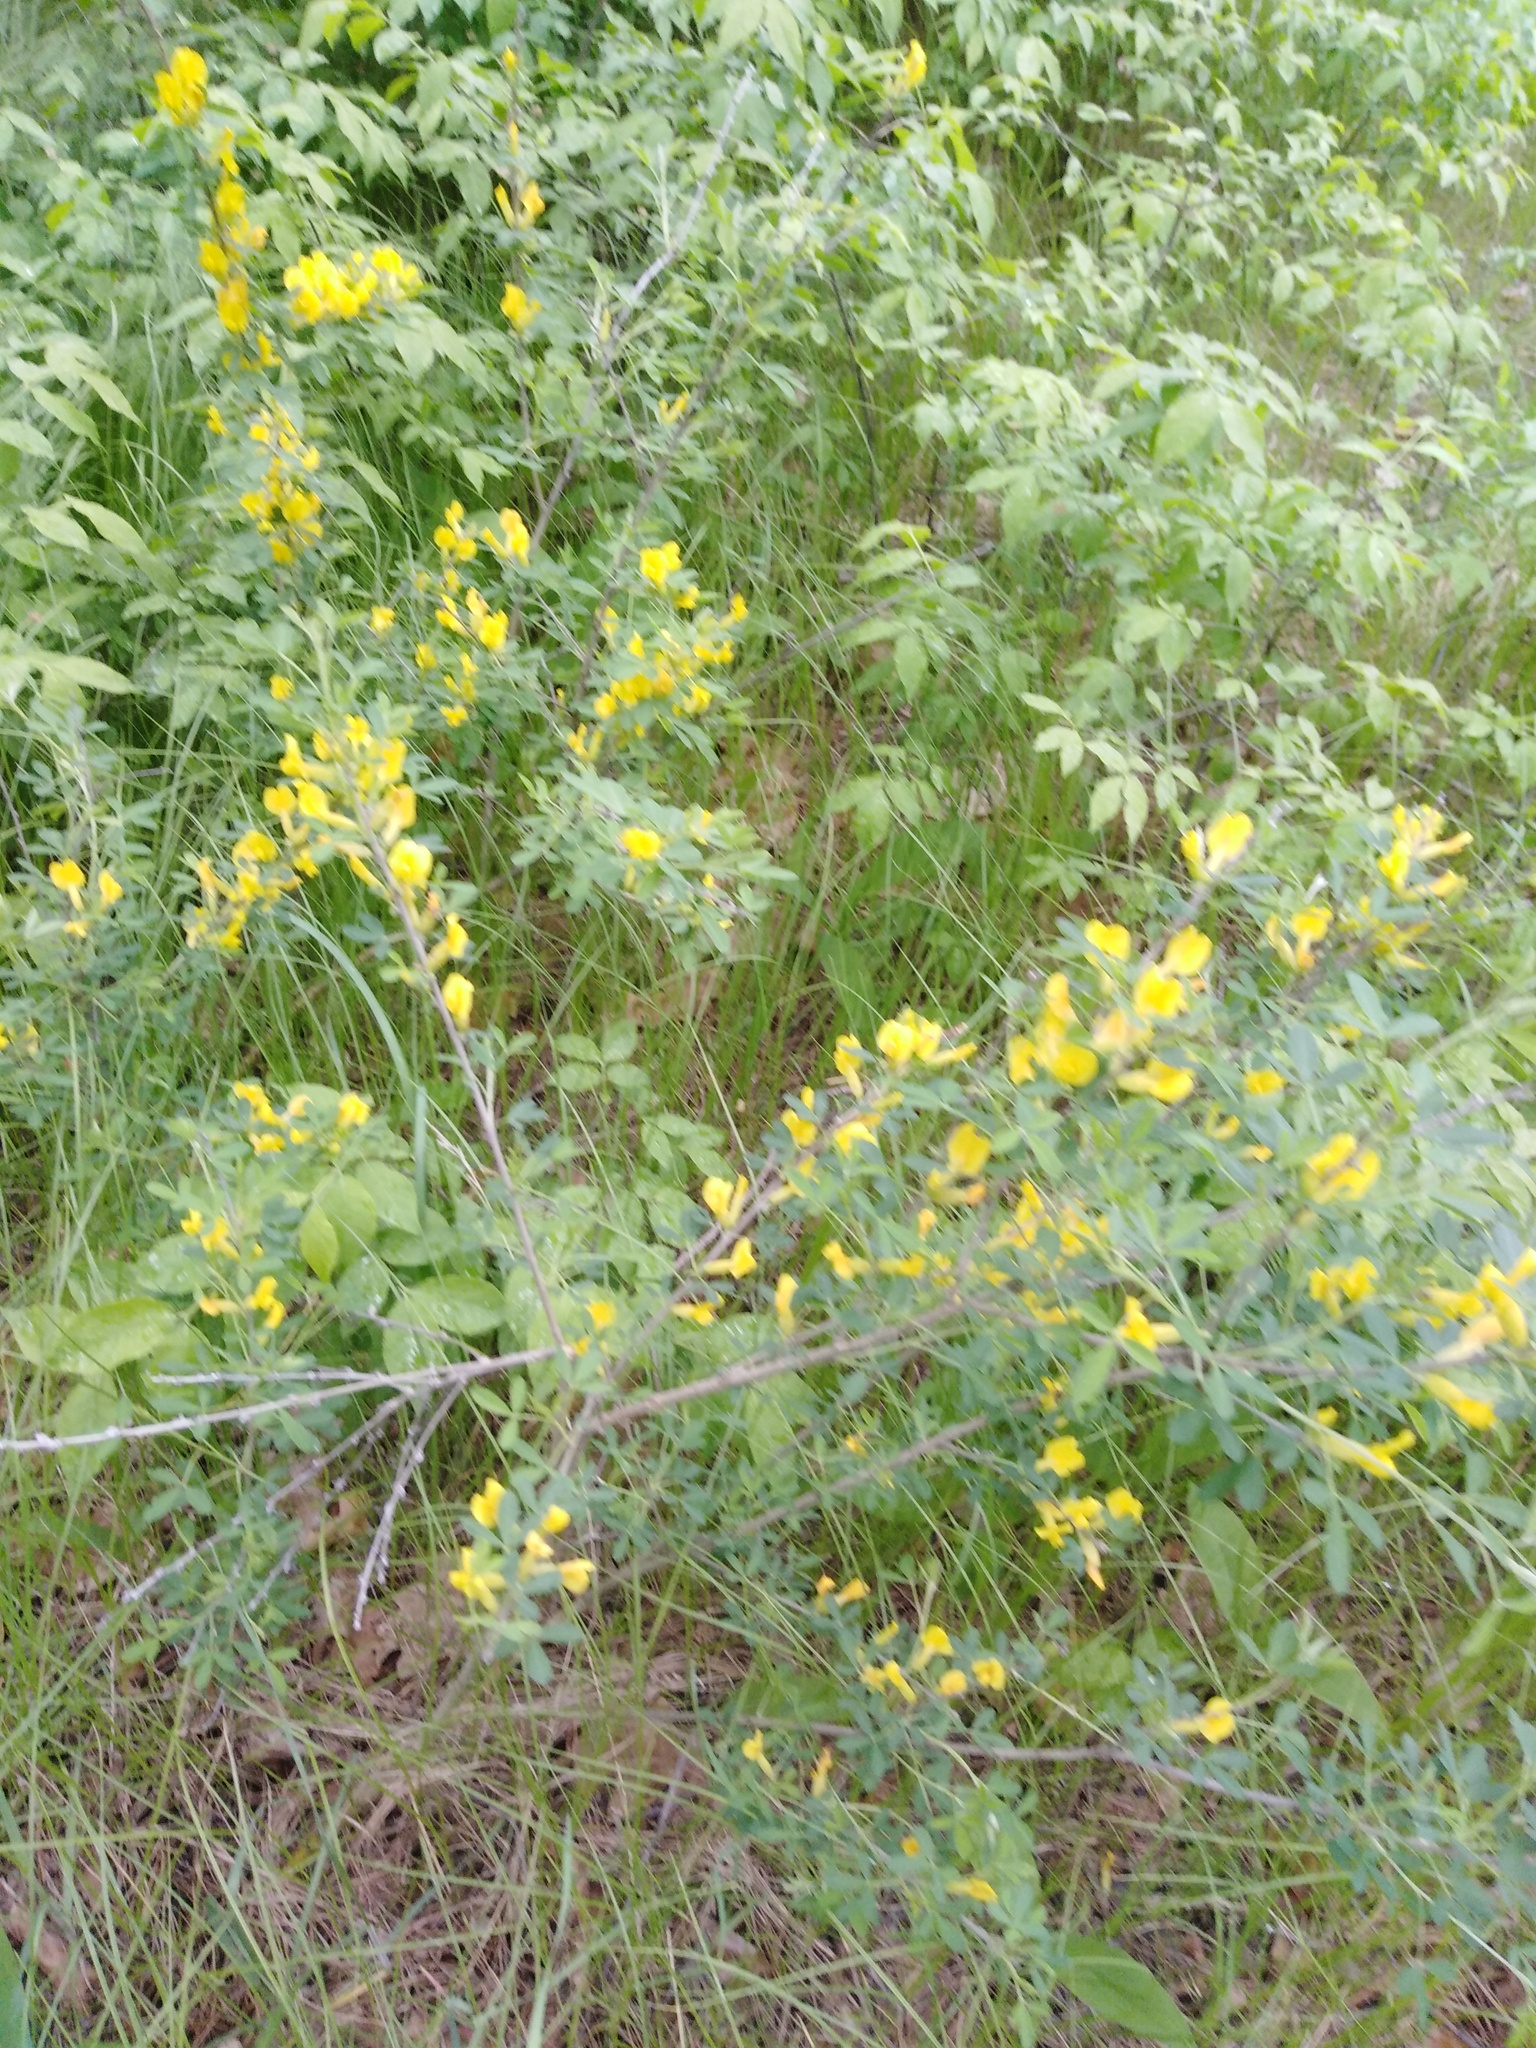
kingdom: Plantae
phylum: Tracheophyta
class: Magnoliopsida
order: Fabales
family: Fabaceae
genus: Chamaecytisus
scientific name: Chamaecytisus ruthenicus
